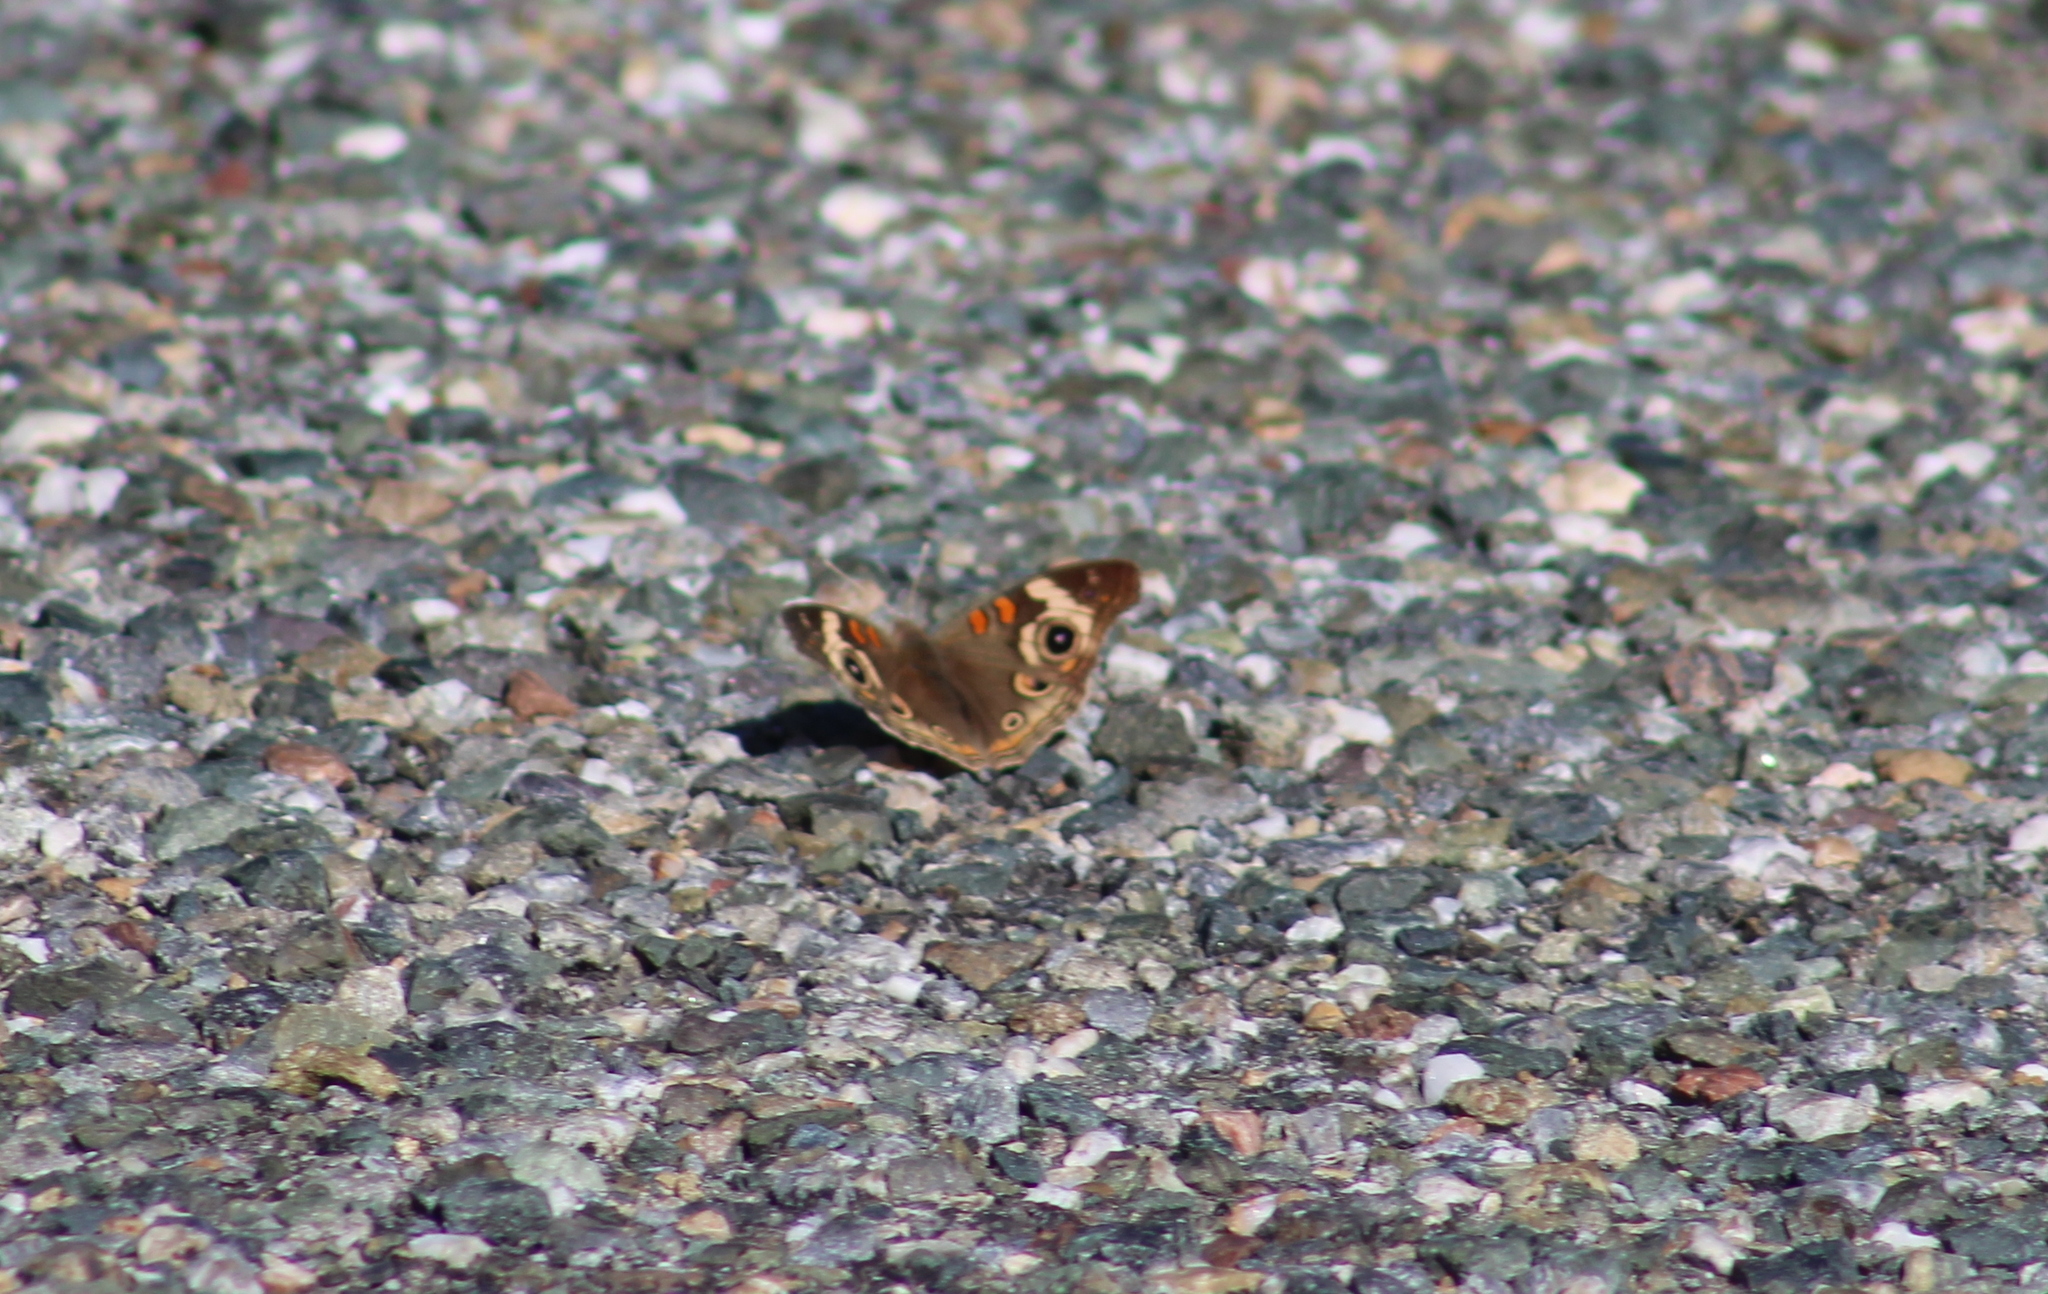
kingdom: Animalia
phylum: Arthropoda
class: Insecta
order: Lepidoptera
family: Nymphalidae
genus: Junonia
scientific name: Junonia grisea
